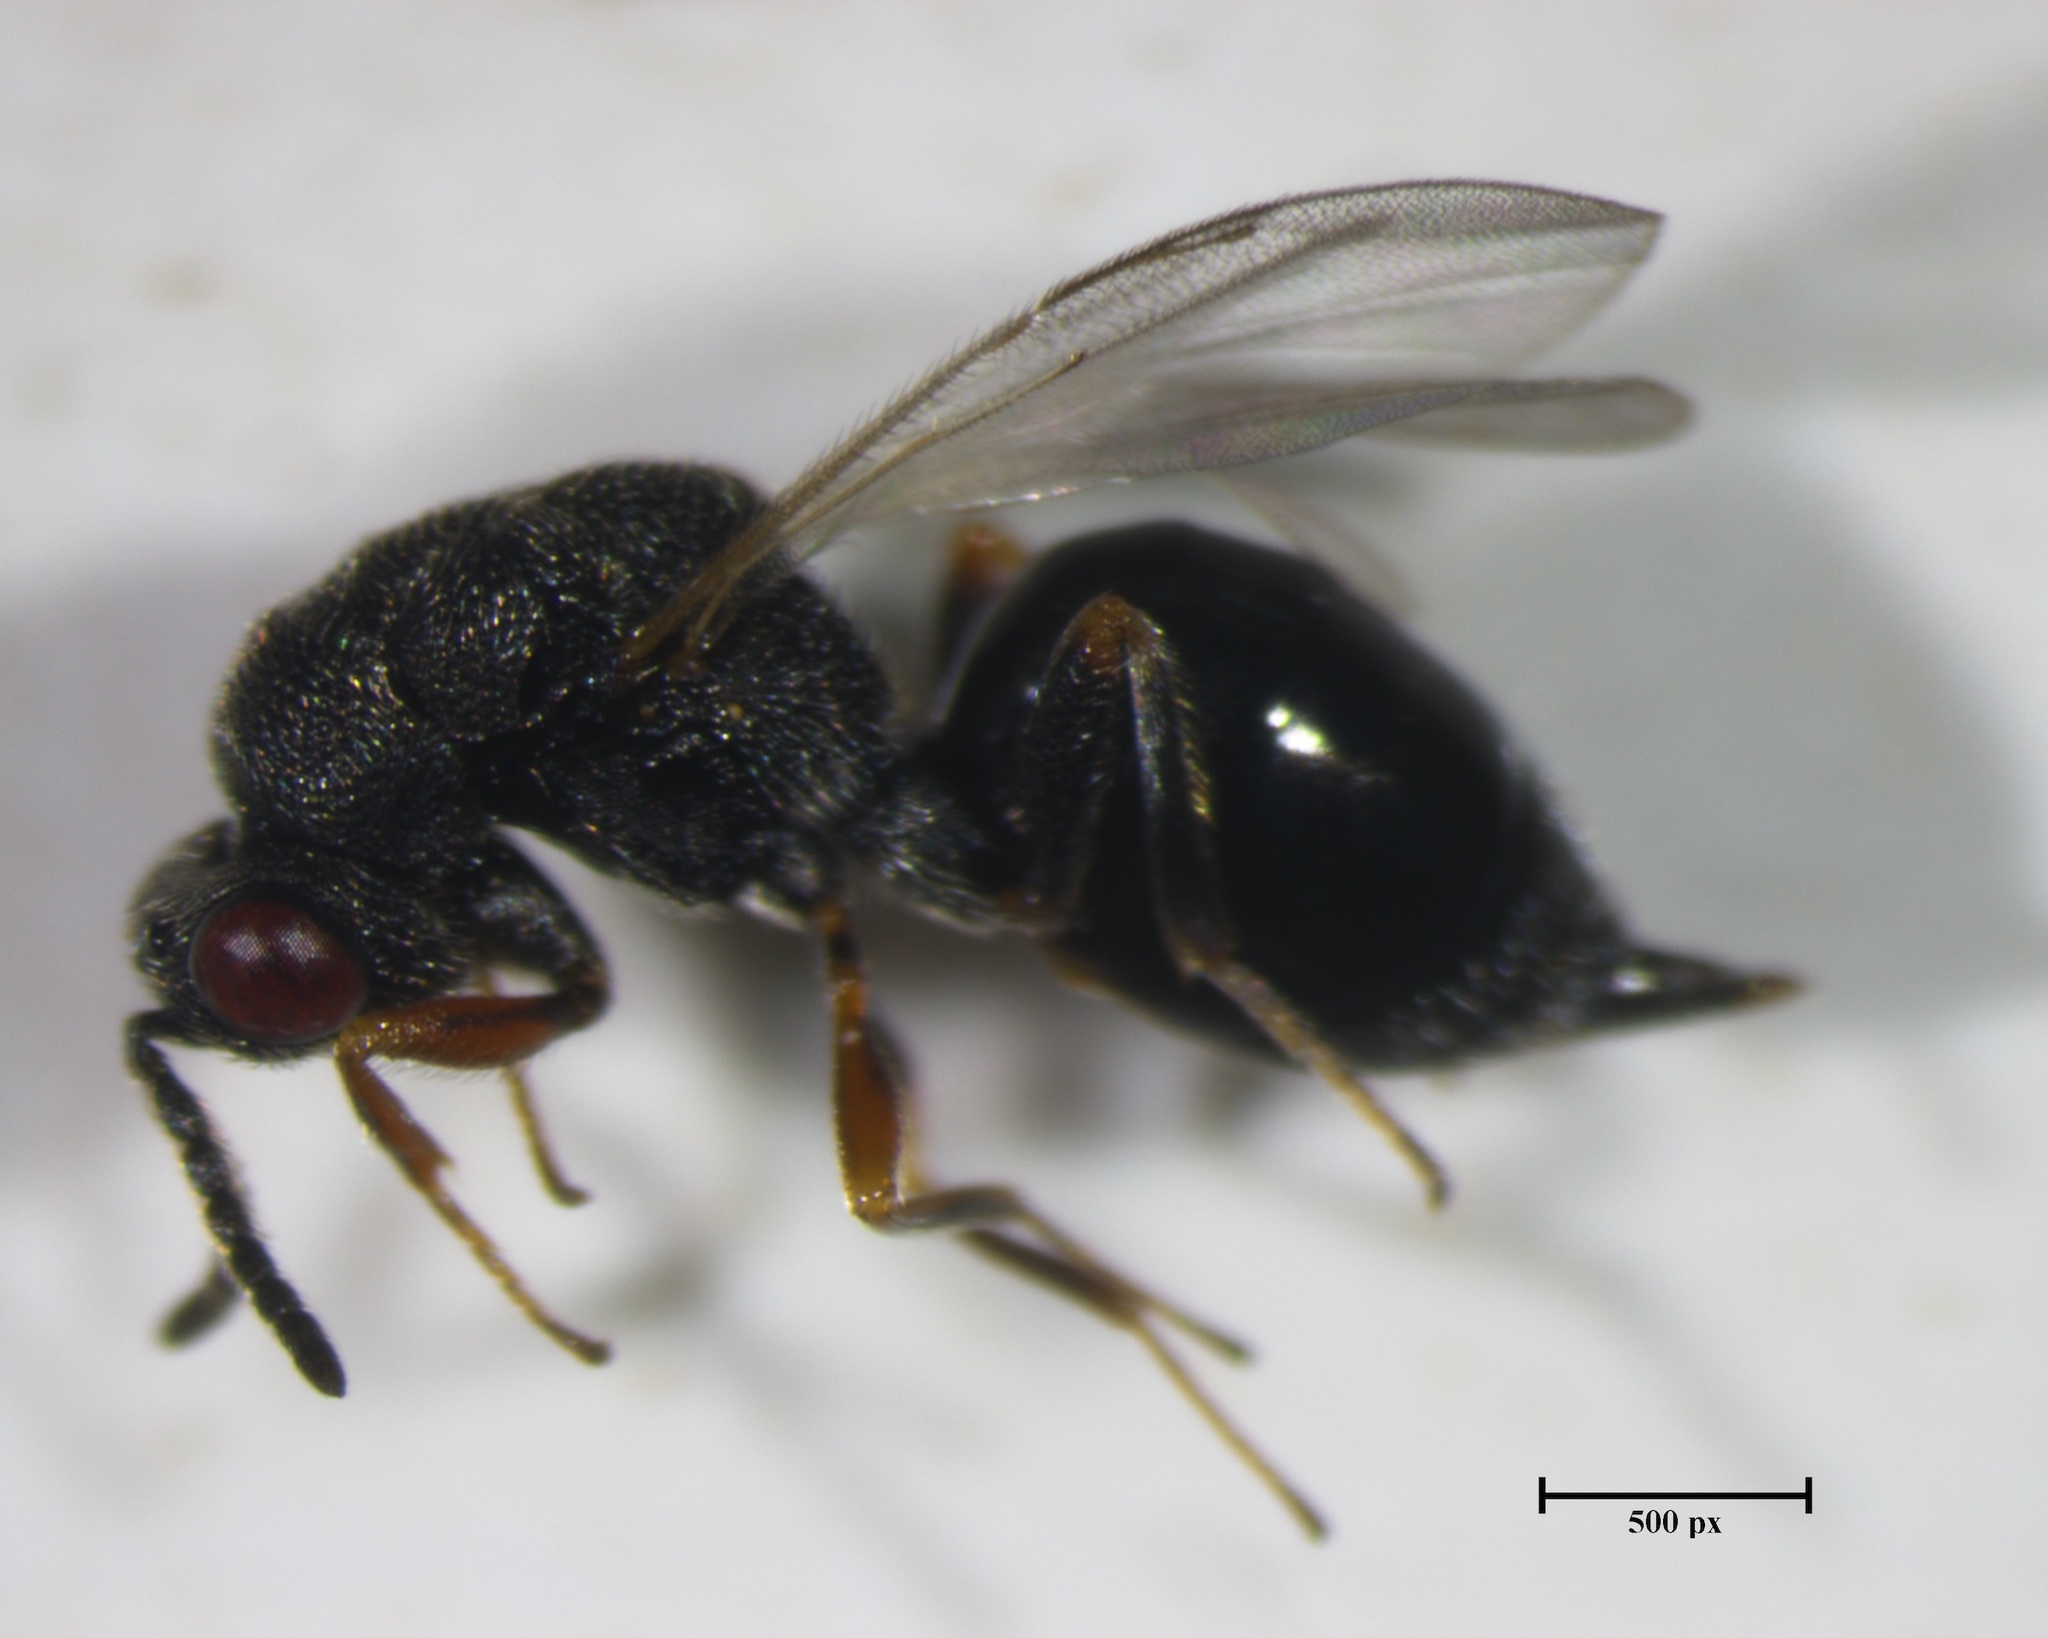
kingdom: Animalia
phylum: Arthropoda
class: Insecta
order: Hymenoptera
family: Eurytomidae
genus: Eurytoma
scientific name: Eurytoma discordans
